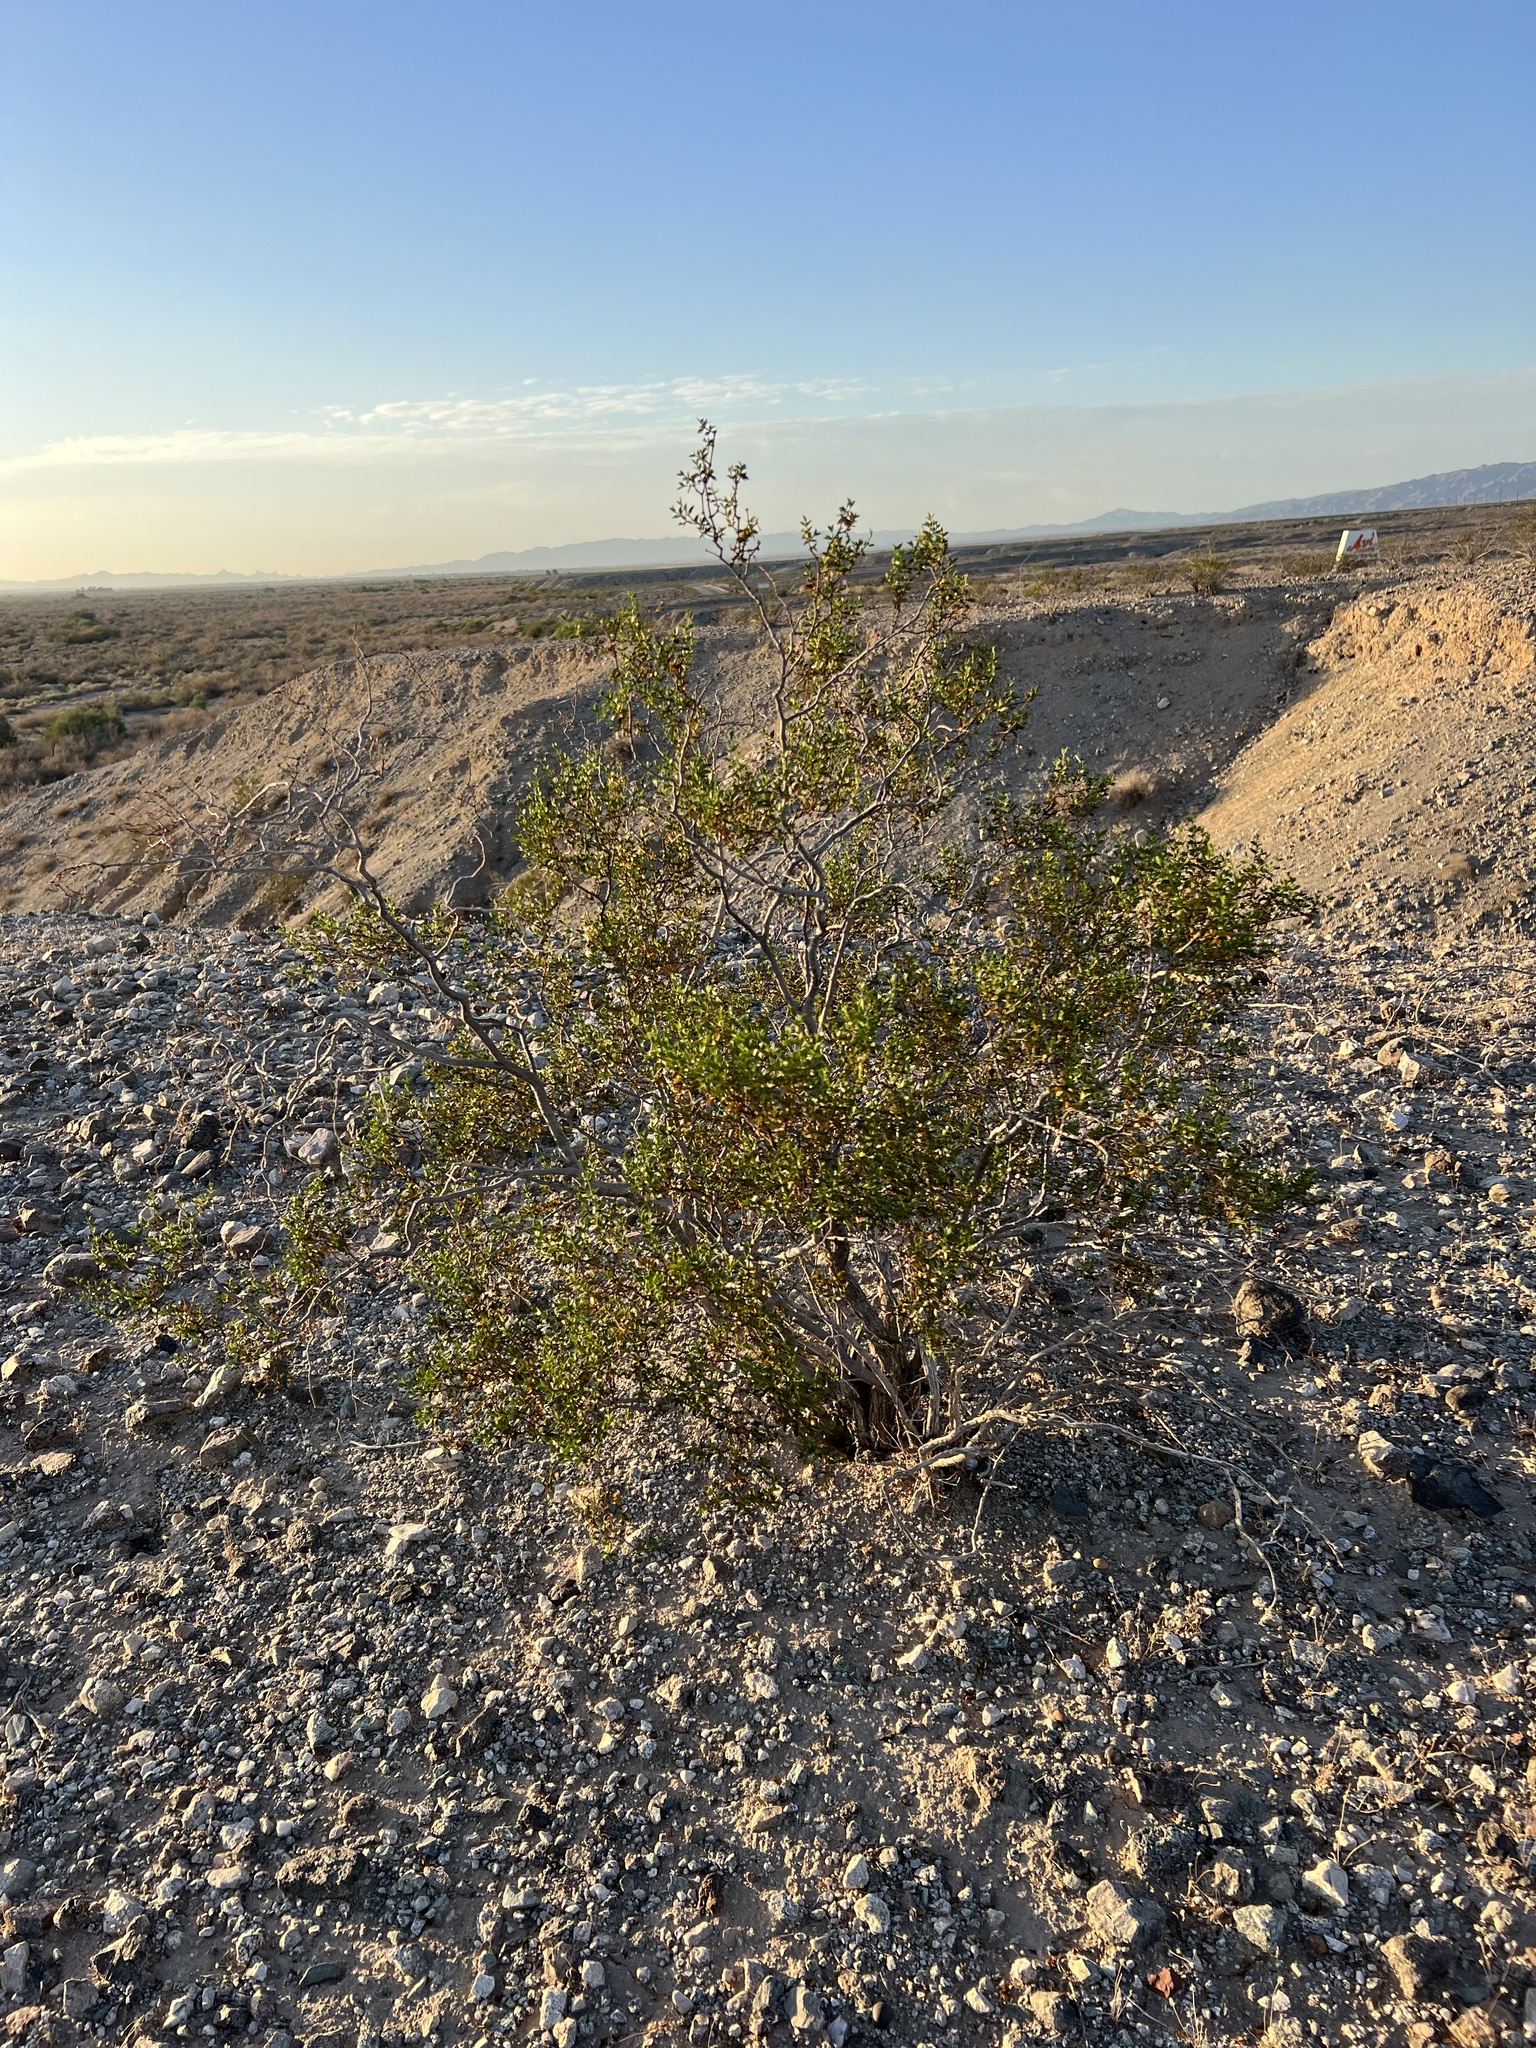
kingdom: Plantae
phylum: Tracheophyta
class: Magnoliopsida
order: Zygophyllales
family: Zygophyllaceae
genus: Larrea
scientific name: Larrea tridentata
